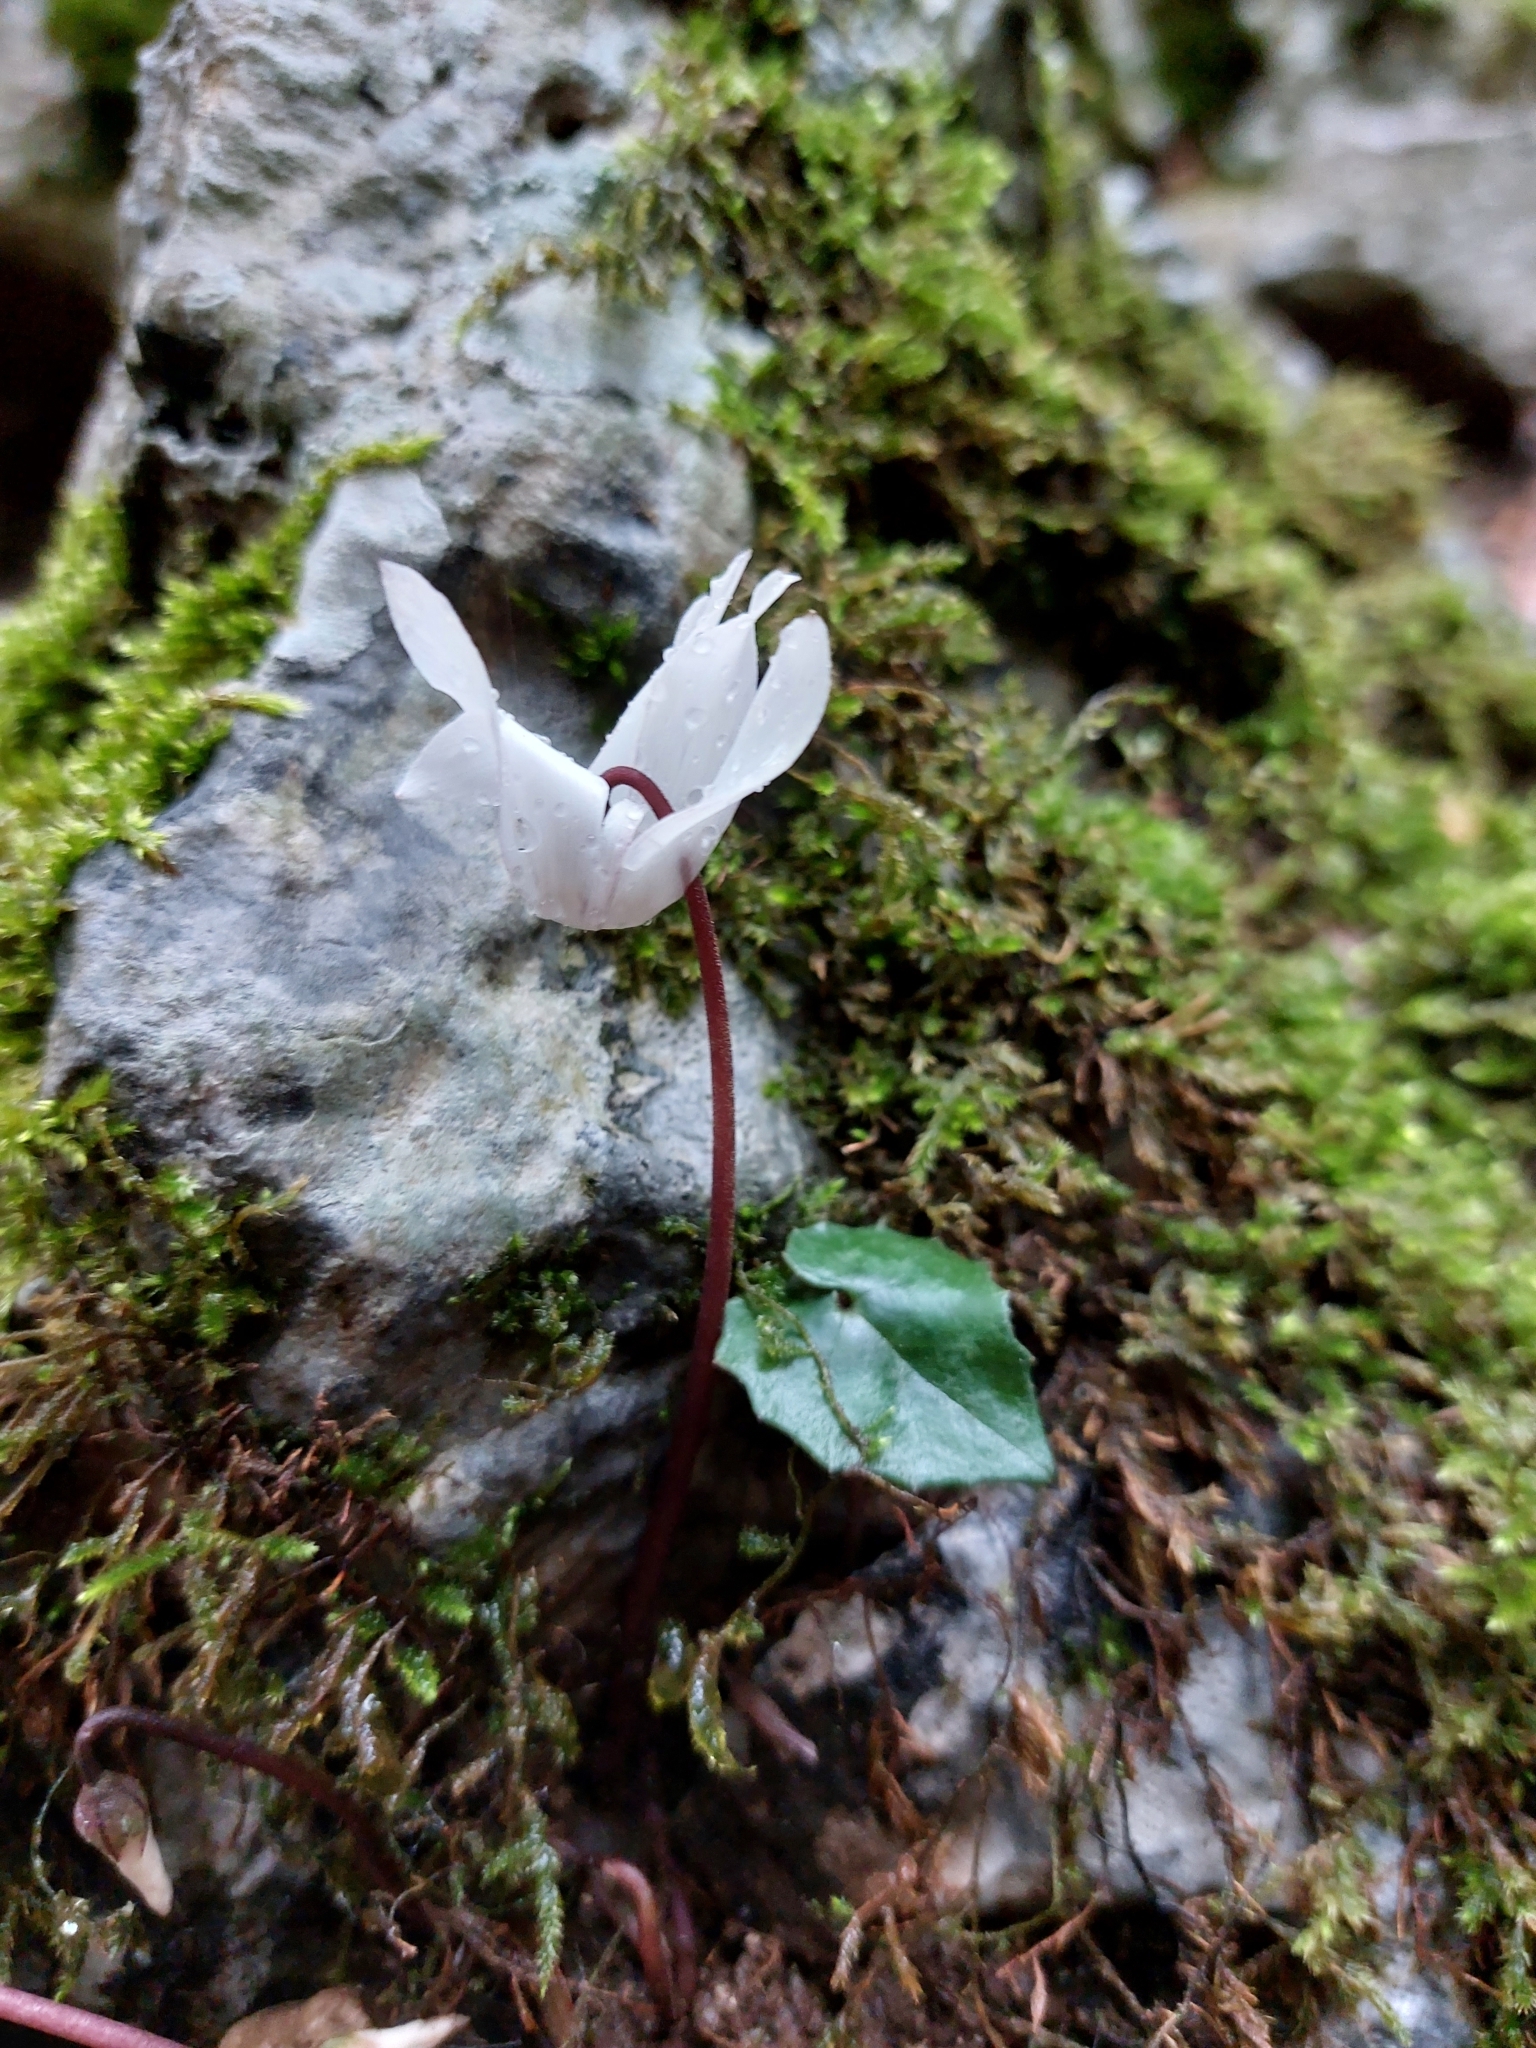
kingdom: Plantae
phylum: Tracheophyta
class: Magnoliopsida
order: Ericales
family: Primulaceae
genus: Cyclamen
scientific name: Cyclamen creticum
